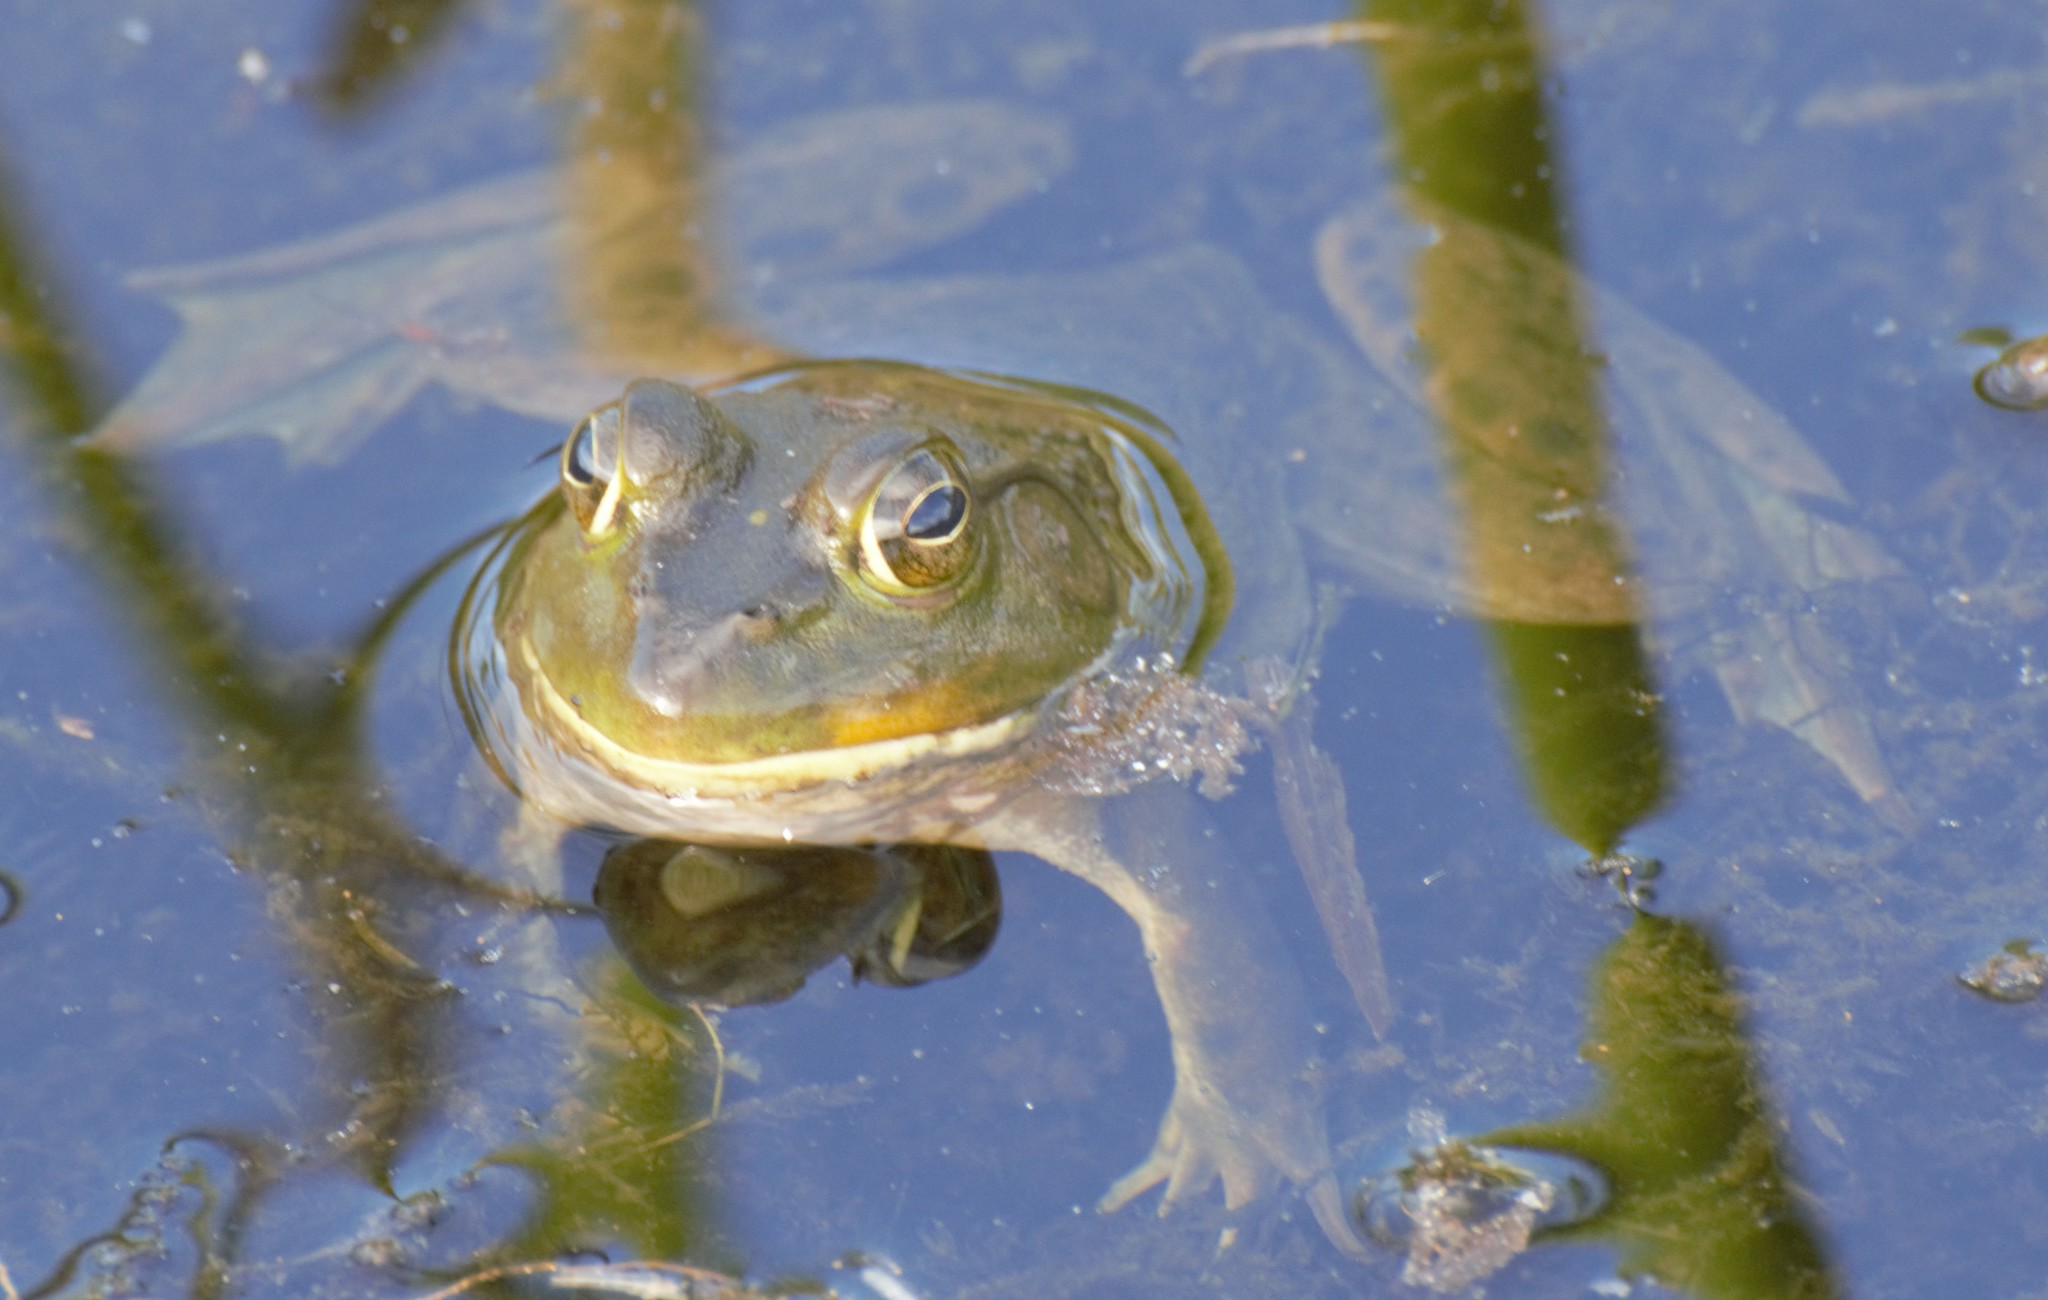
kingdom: Animalia
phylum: Chordata
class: Amphibia
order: Anura
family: Ranidae
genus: Lithobates
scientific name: Lithobates catesbeianus
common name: American bullfrog
